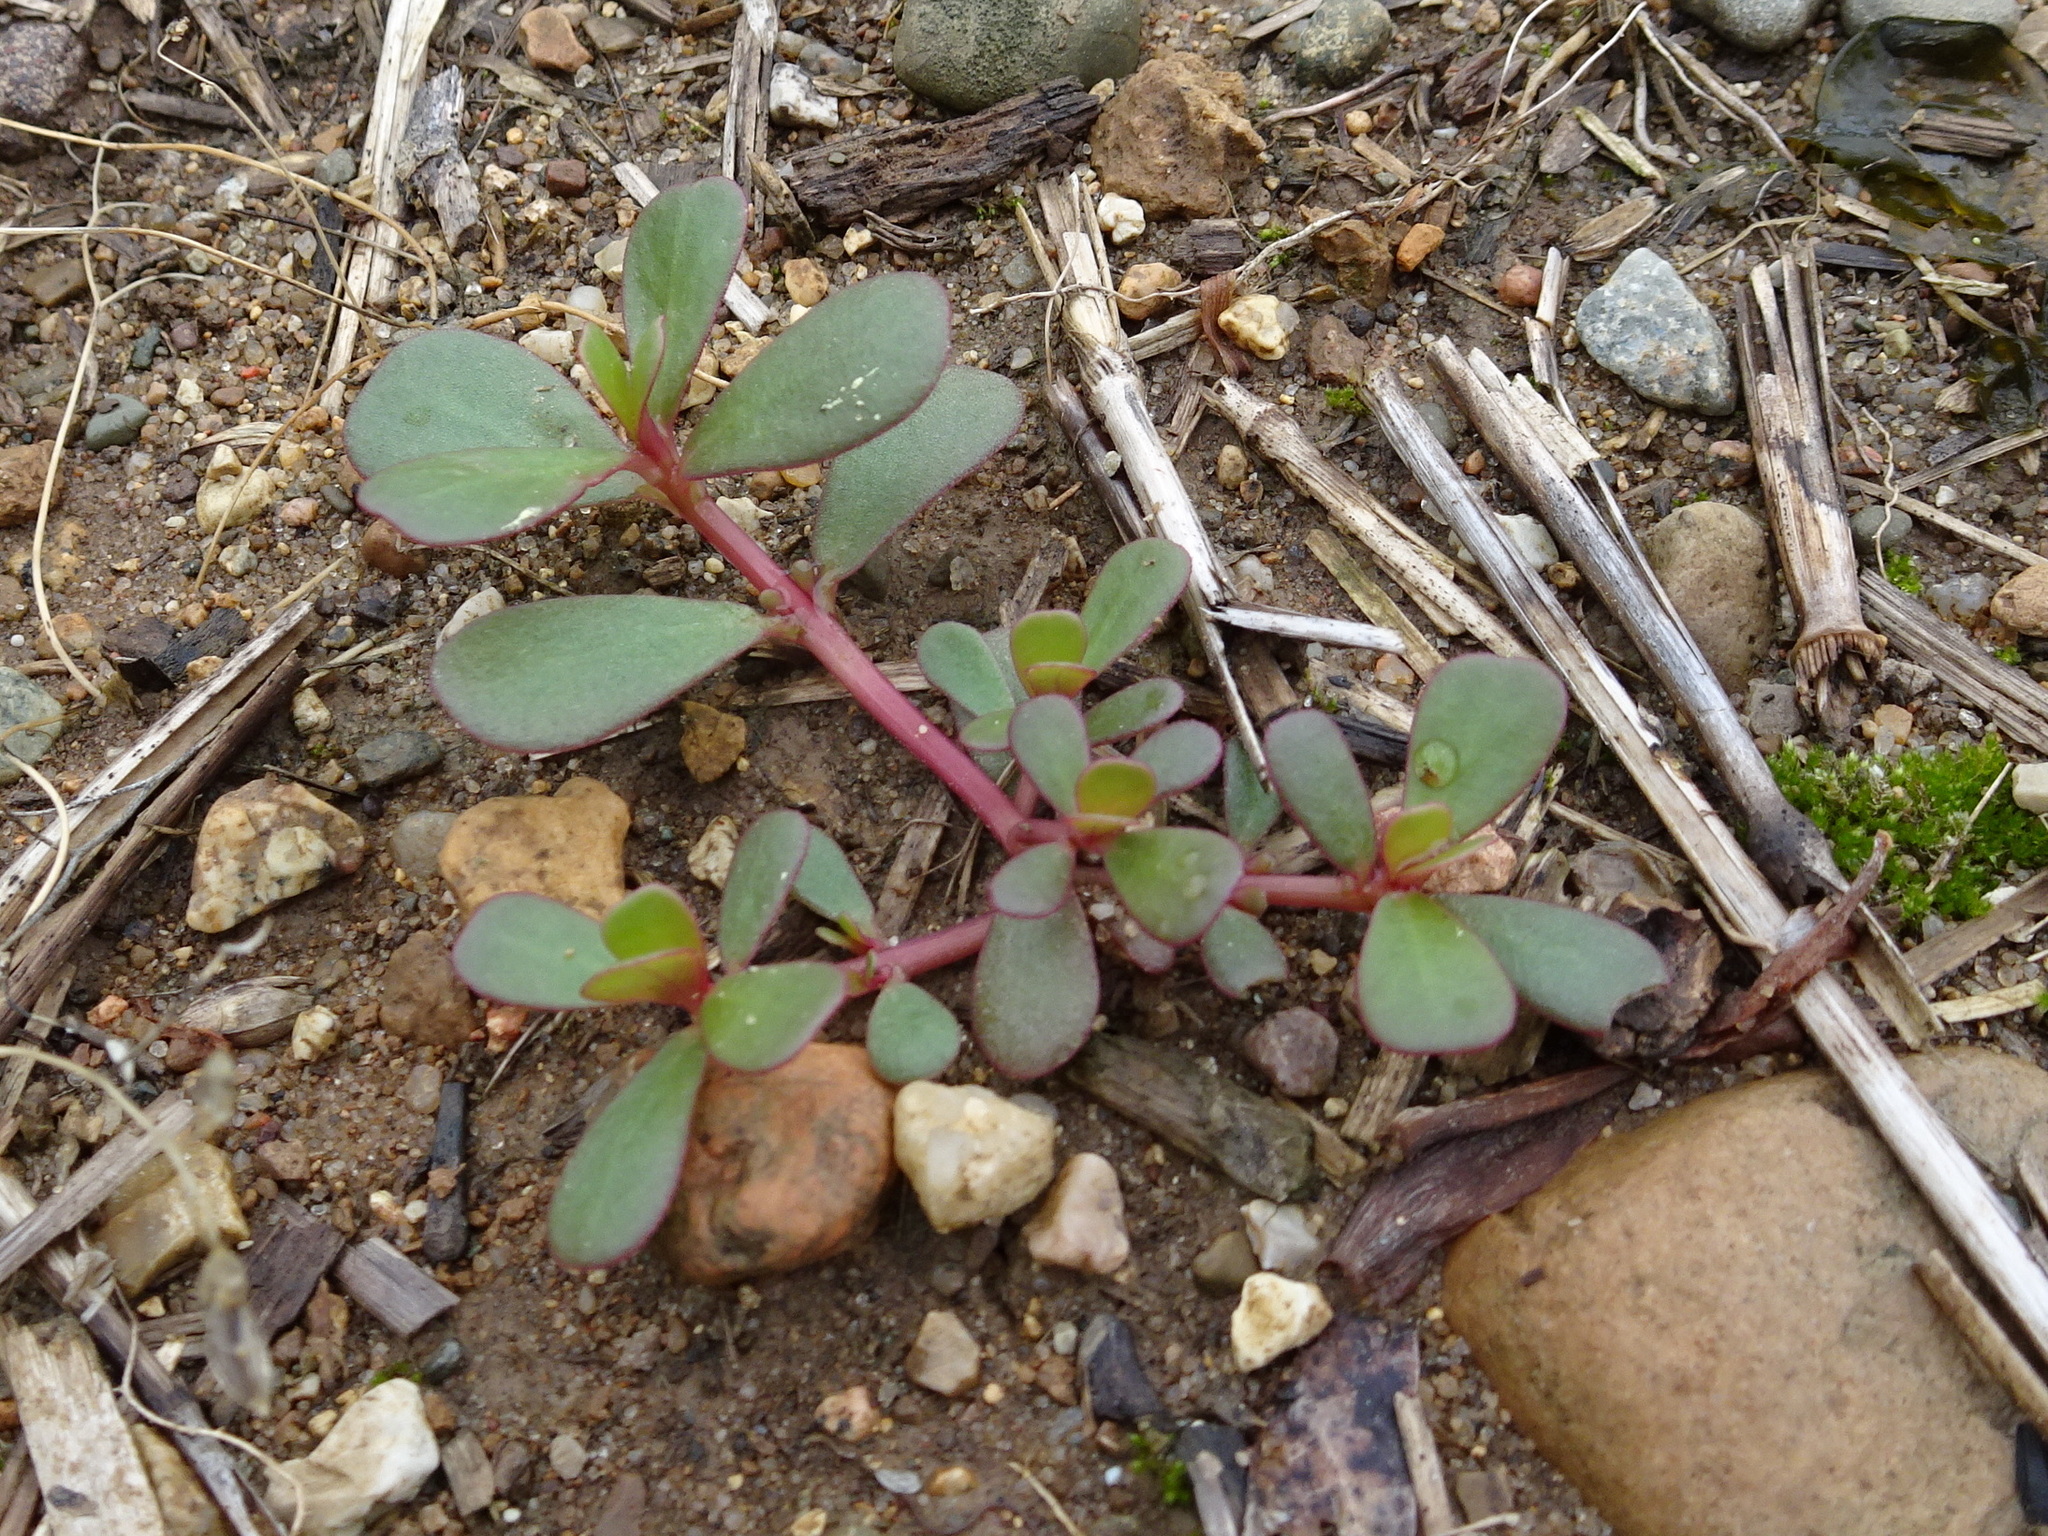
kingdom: Plantae
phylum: Tracheophyta
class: Magnoliopsida
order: Caryophyllales
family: Portulacaceae
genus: Portulaca
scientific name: Portulaca oleracea
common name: Common purslane
